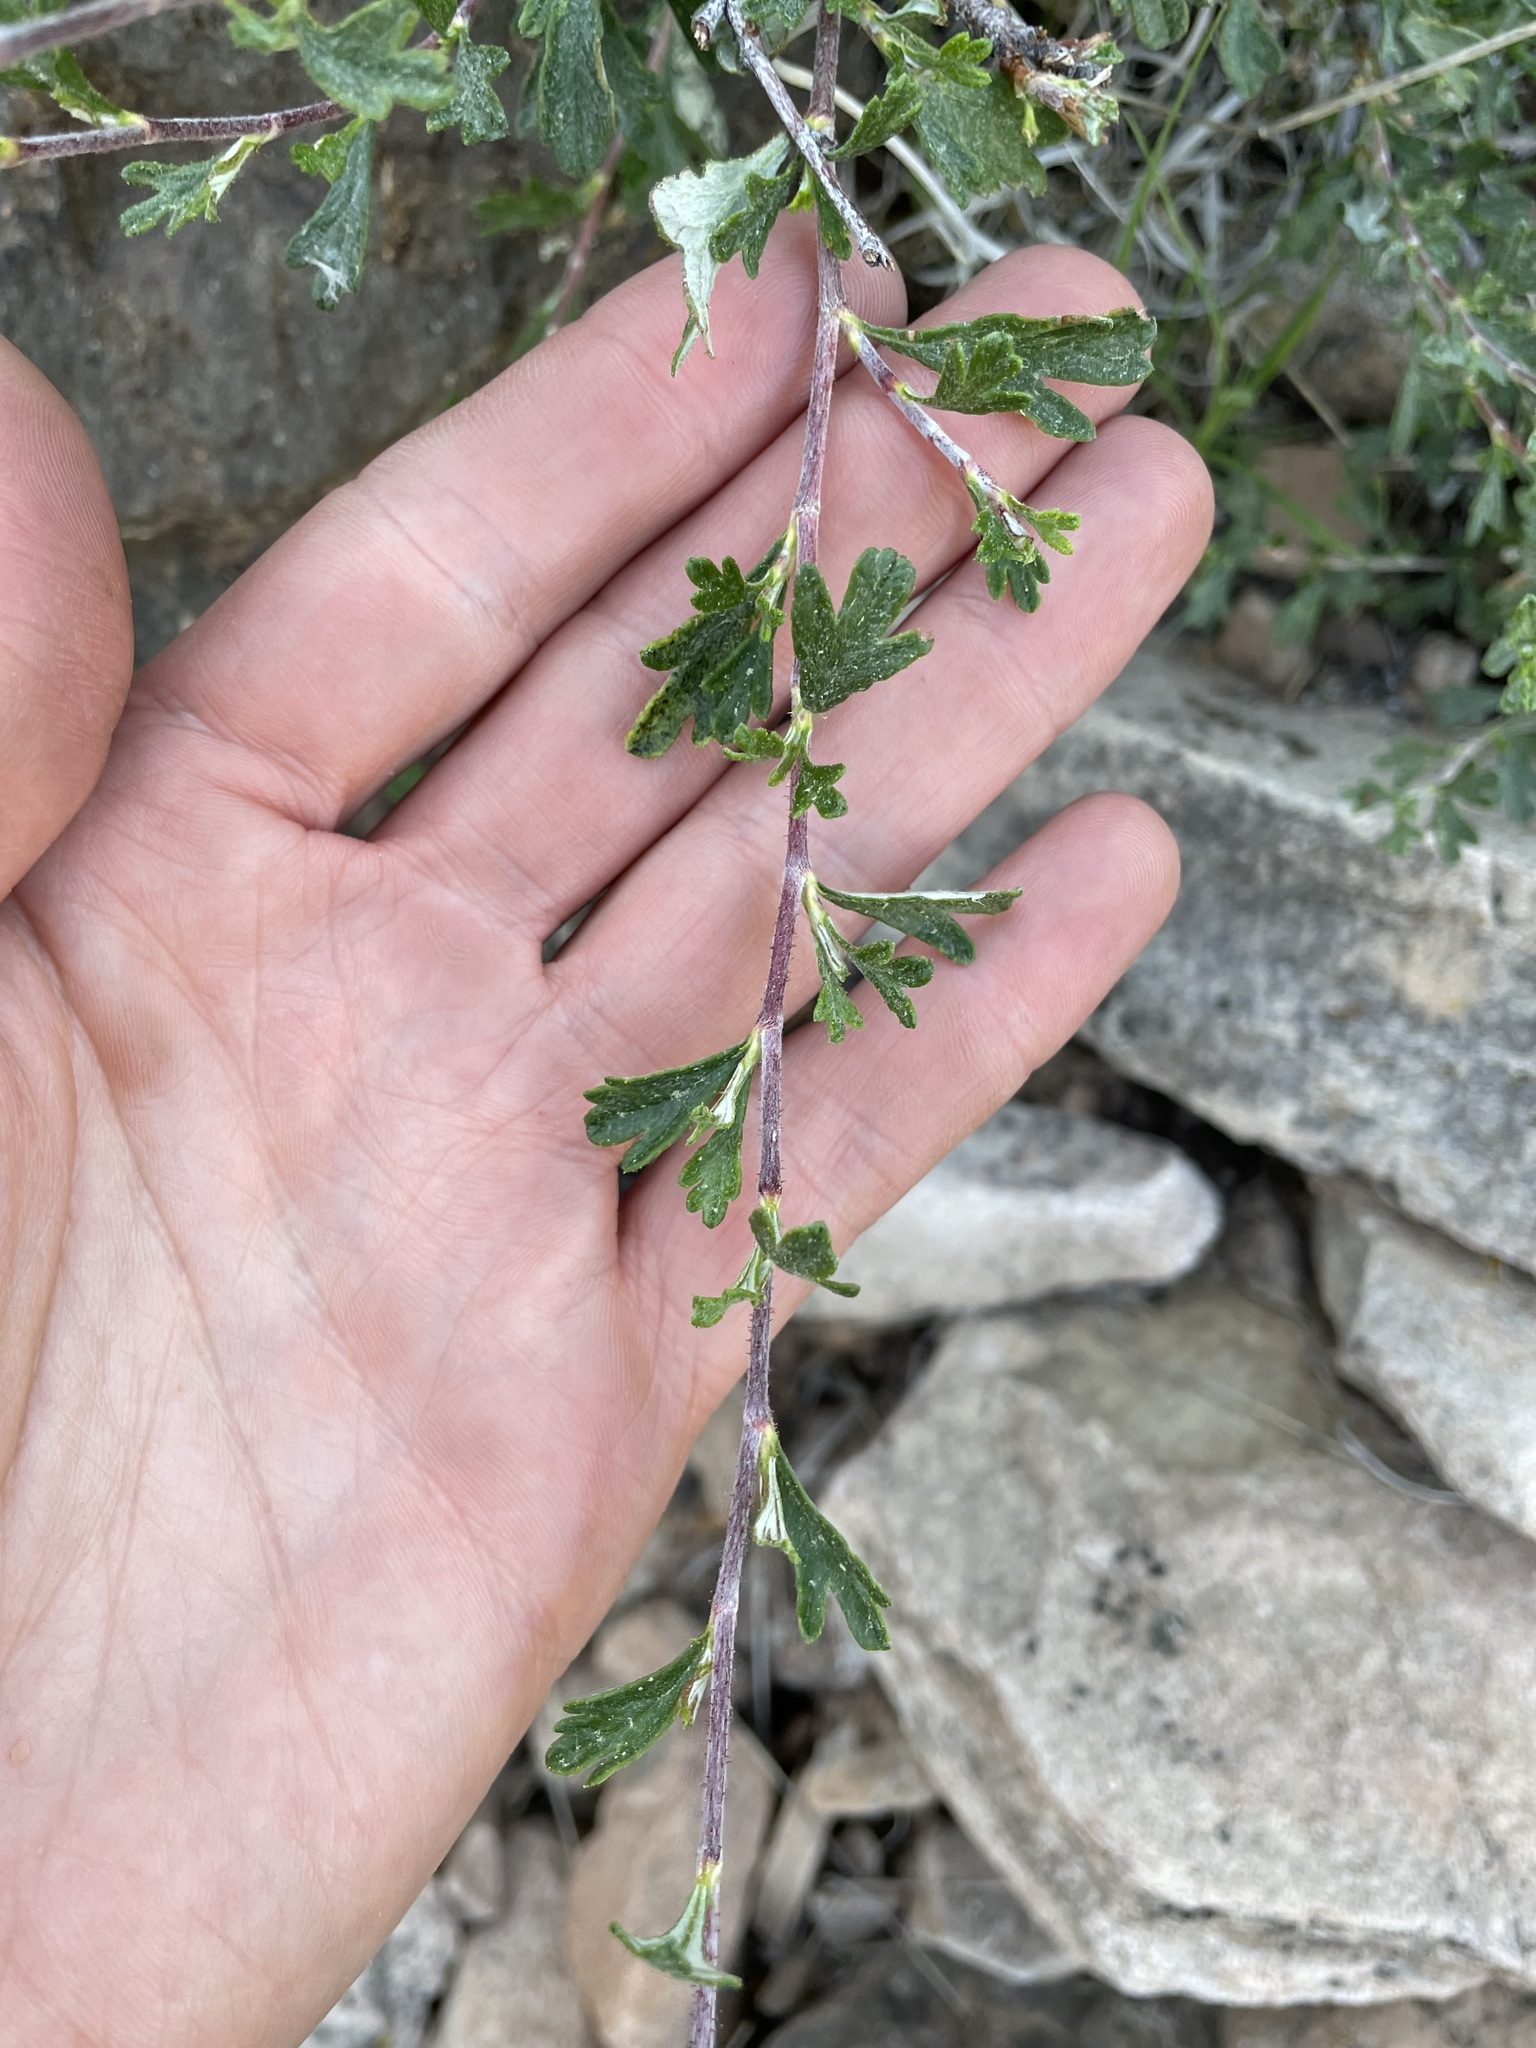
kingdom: Plantae
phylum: Tracheophyta
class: Magnoliopsida
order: Rosales
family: Rosaceae
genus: Purshia
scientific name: Purshia tridentata
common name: Antelope bitterbrush
